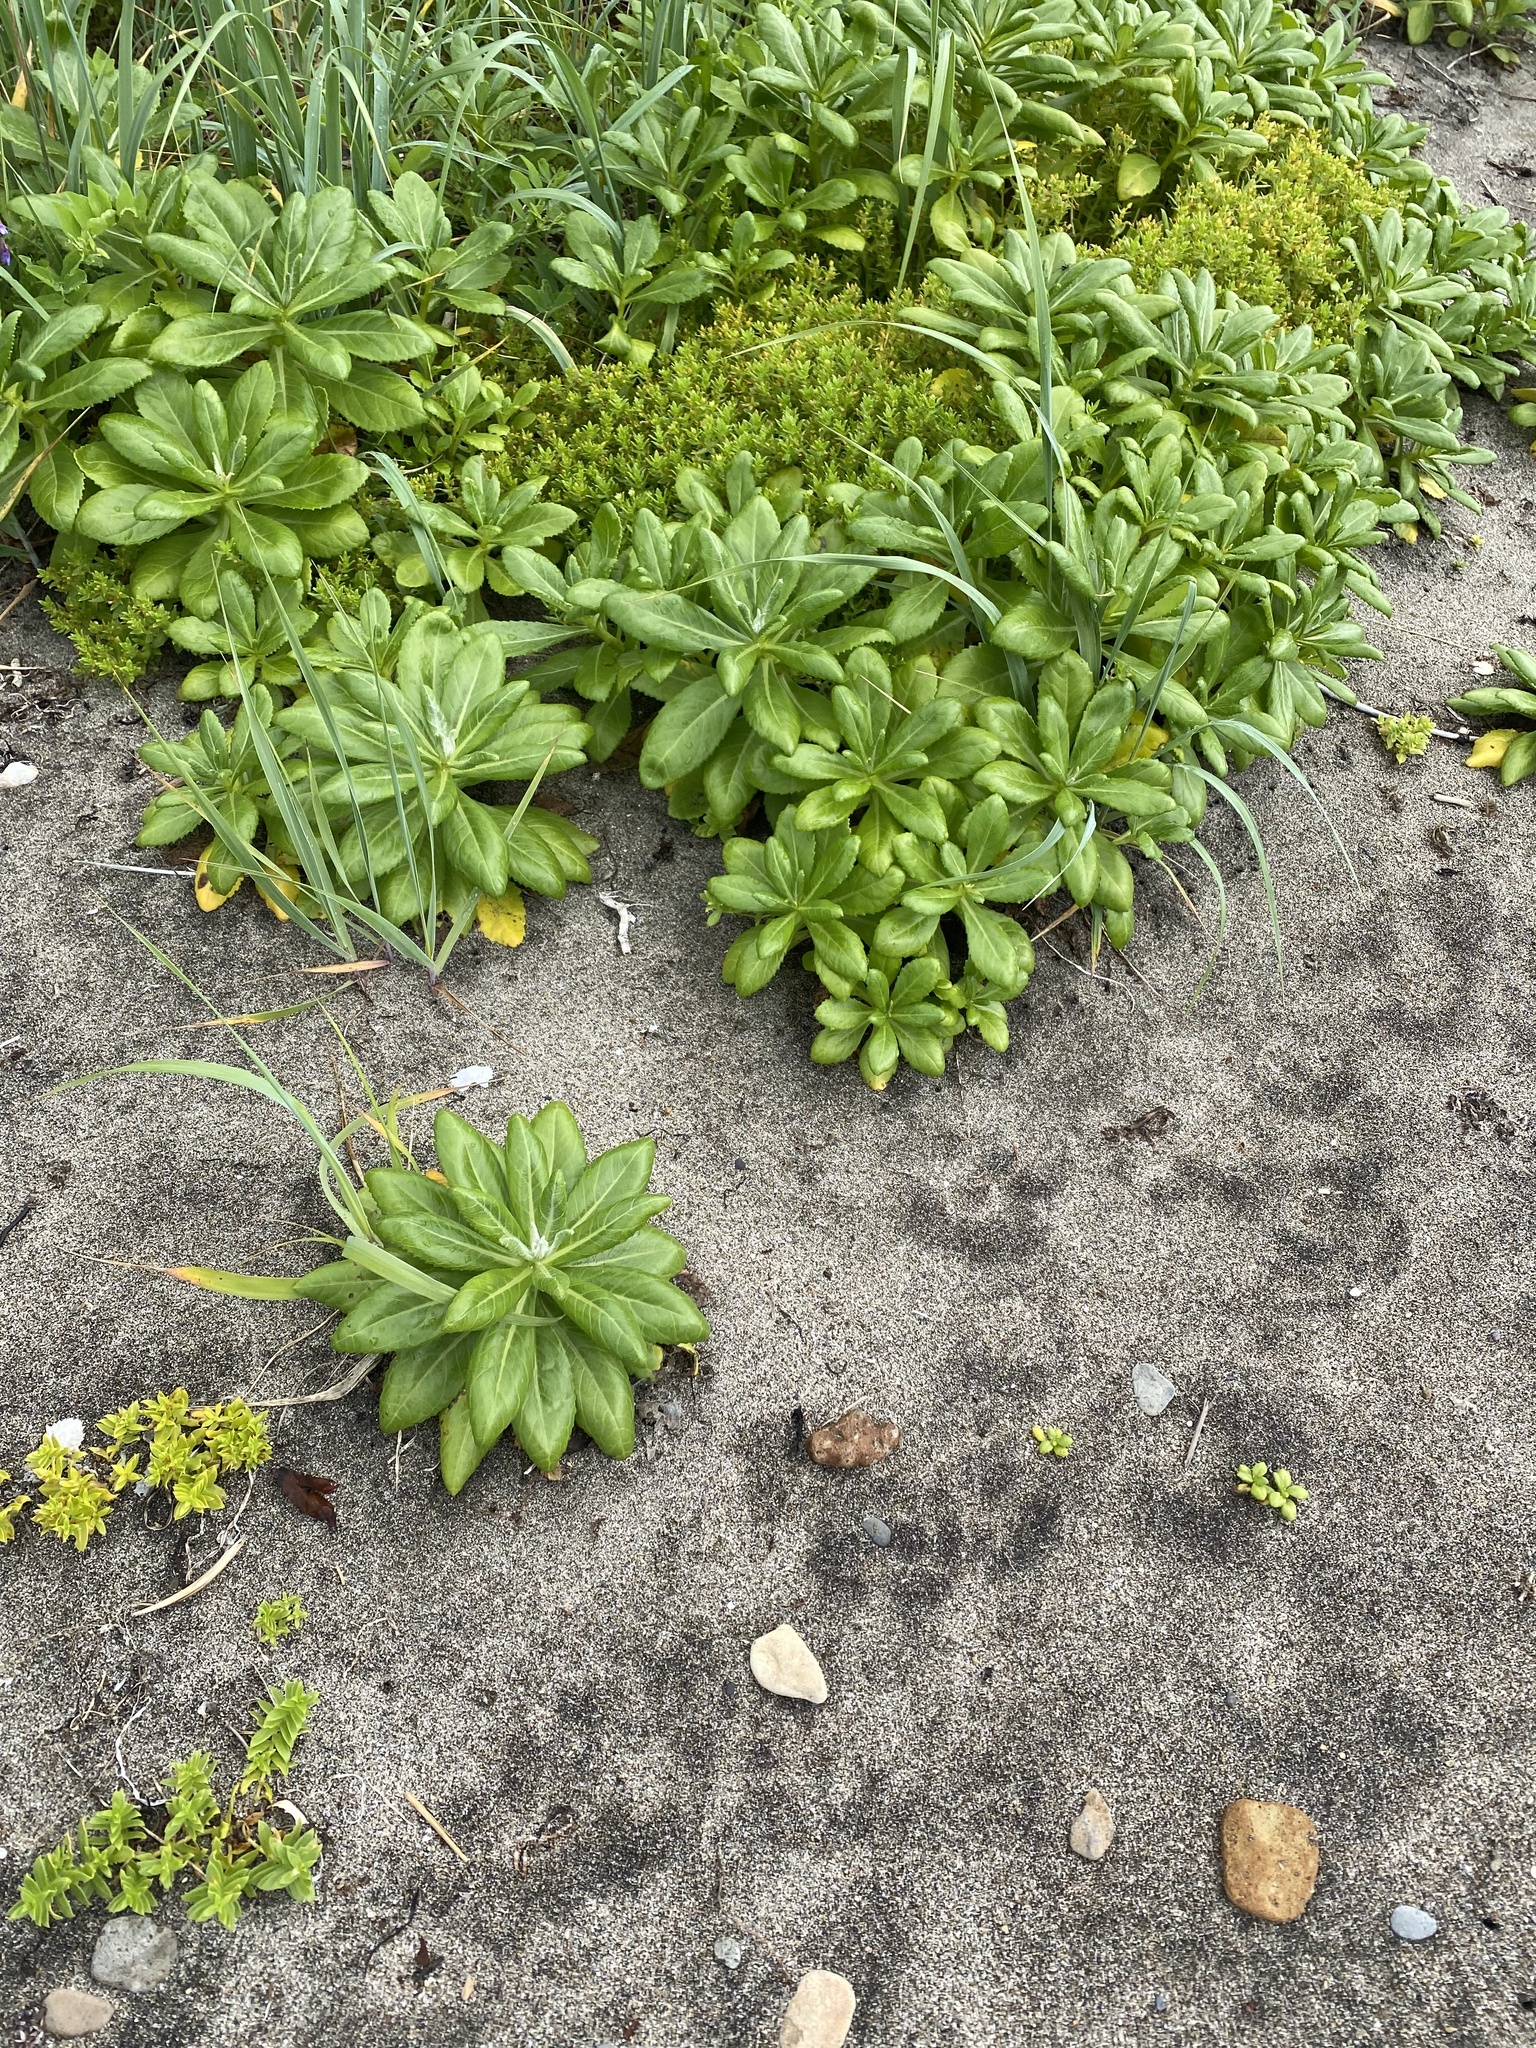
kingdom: Plantae
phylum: Tracheophyta
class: Magnoliopsida
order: Asterales
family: Asteraceae
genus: Jacobaea
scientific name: Jacobaea pseudoarnica
